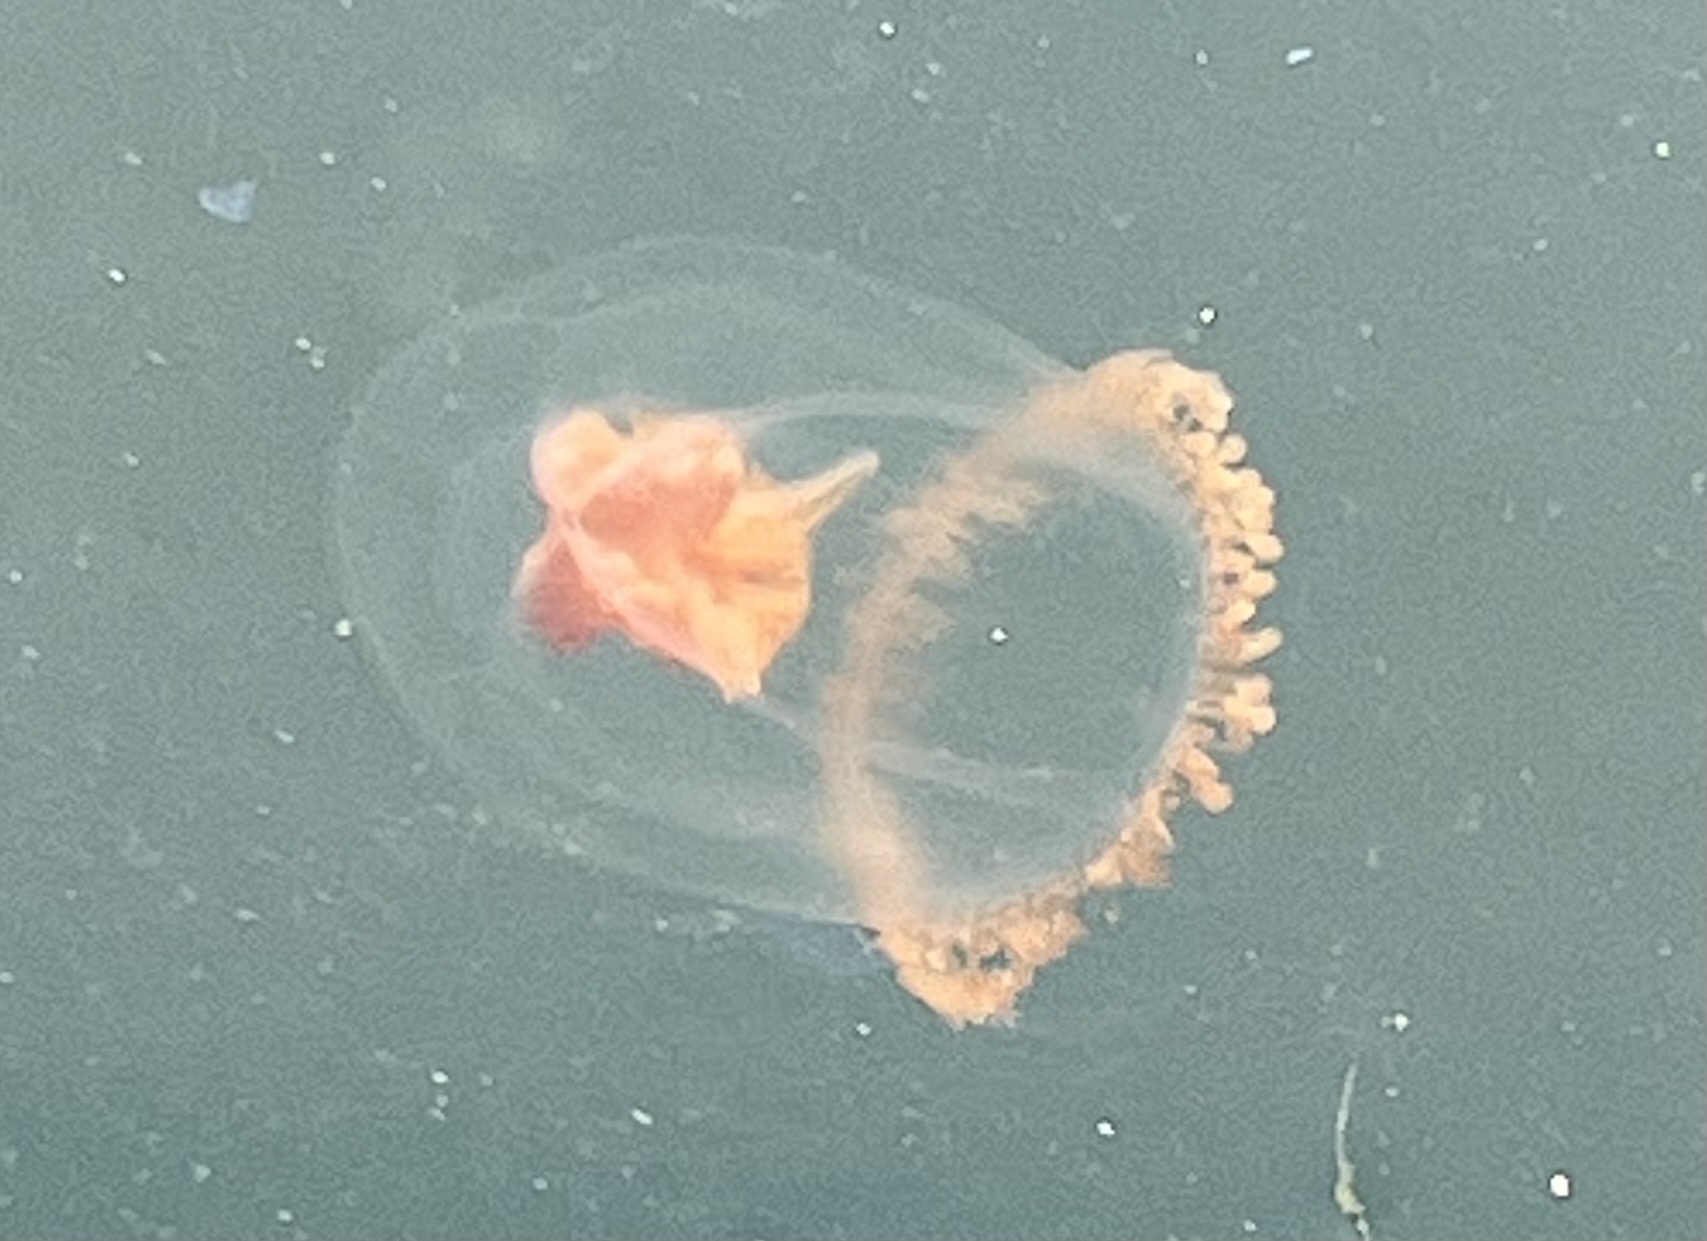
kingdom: Animalia
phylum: Cnidaria
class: Hydrozoa
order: Anthoathecata
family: Pandeidae
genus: Neoturris
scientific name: Neoturris breviconis
